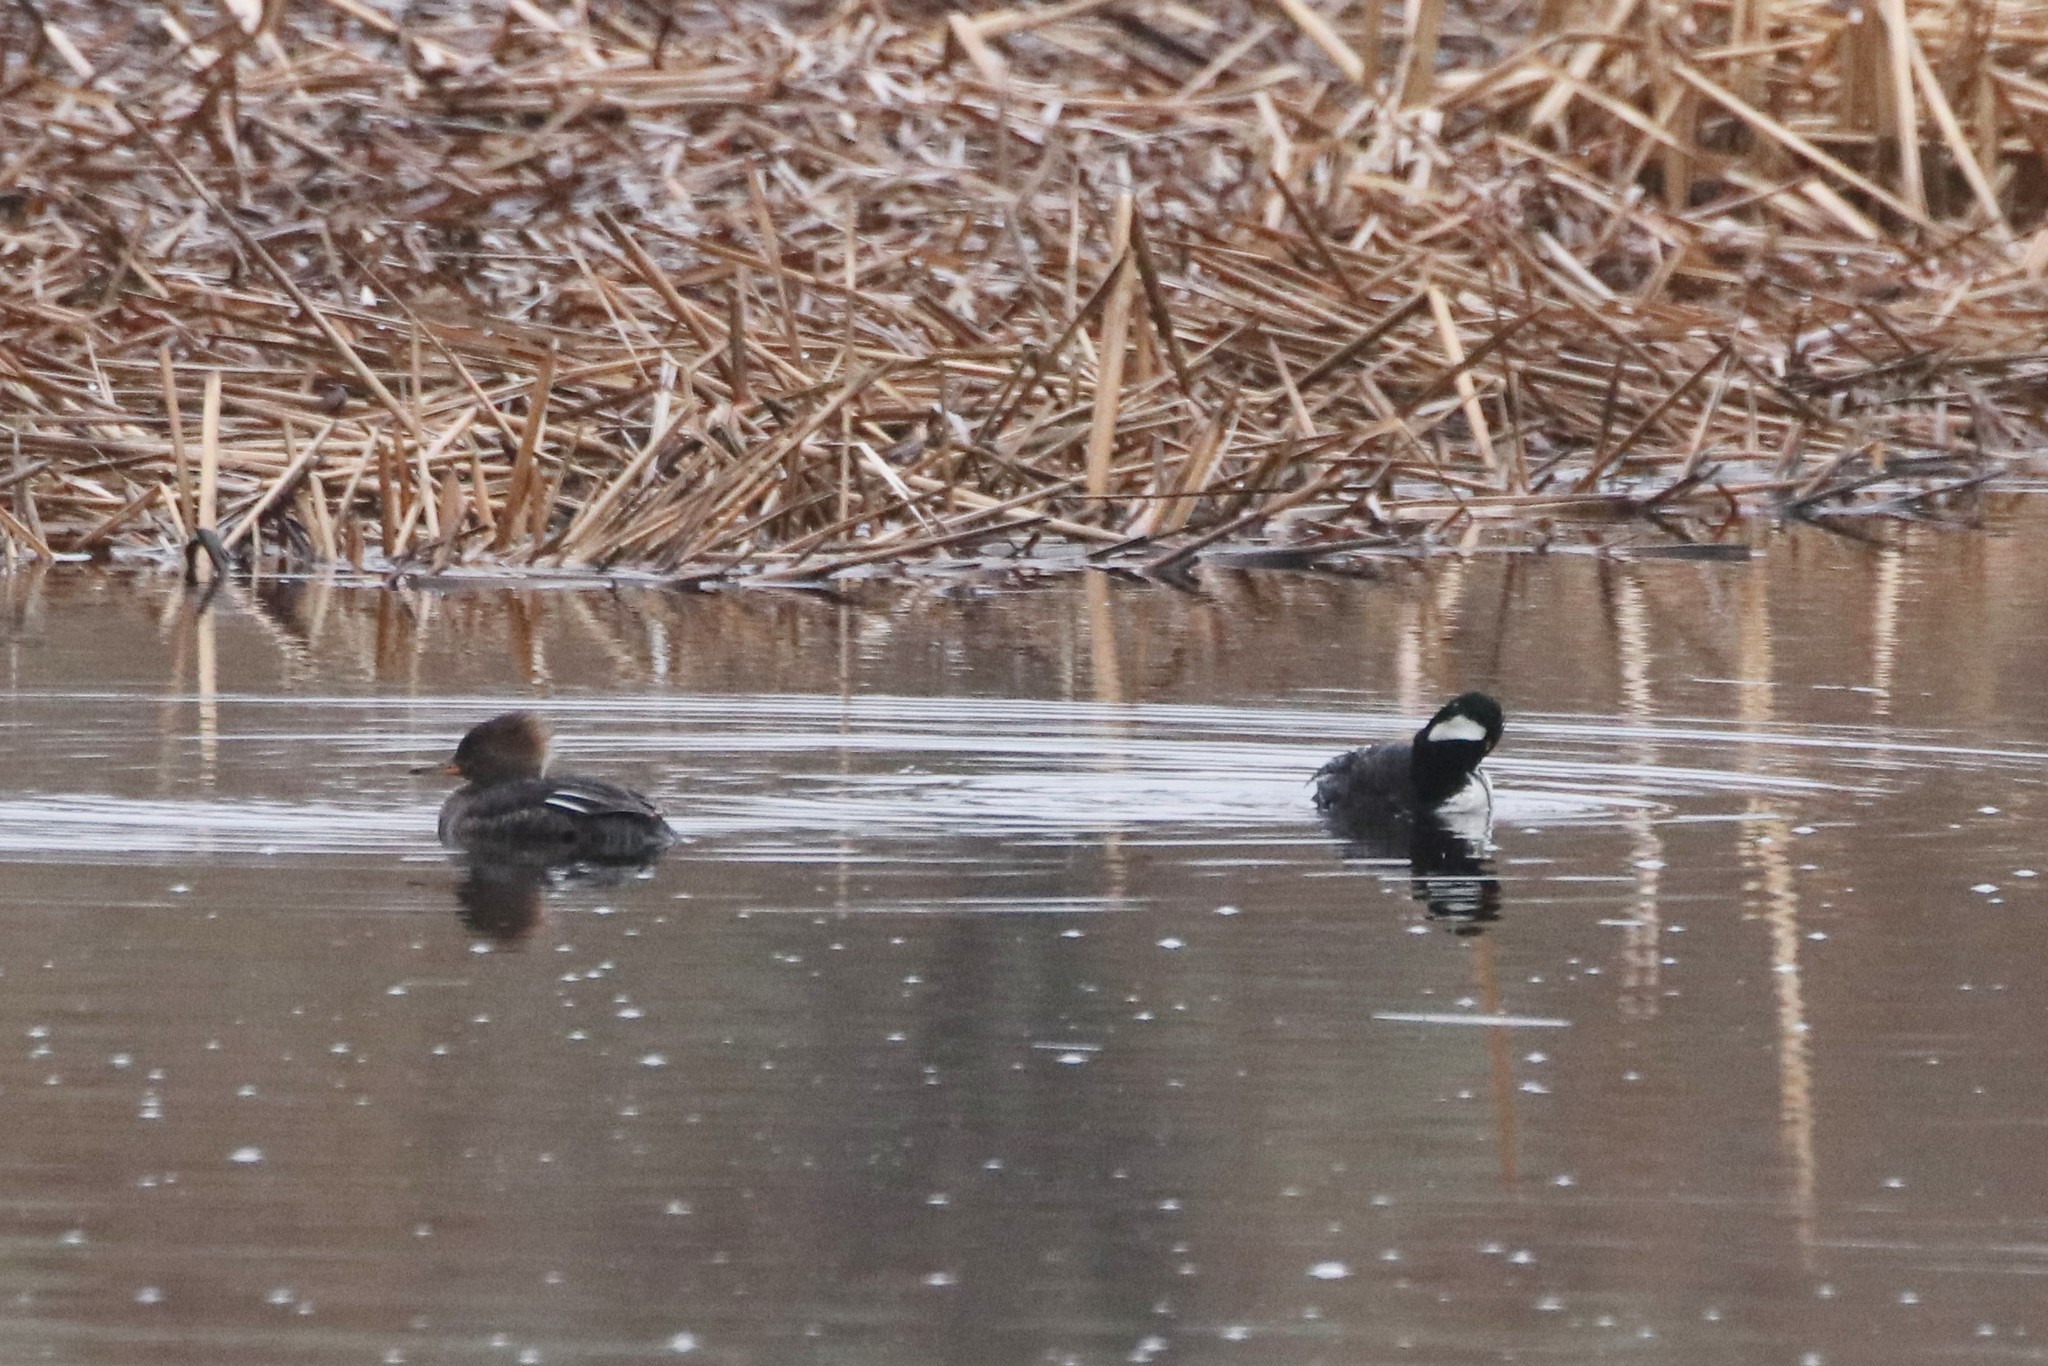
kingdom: Animalia
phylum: Chordata
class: Aves
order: Anseriformes
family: Anatidae
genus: Lophodytes
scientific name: Lophodytes cucullatus
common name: Hooded merganser
